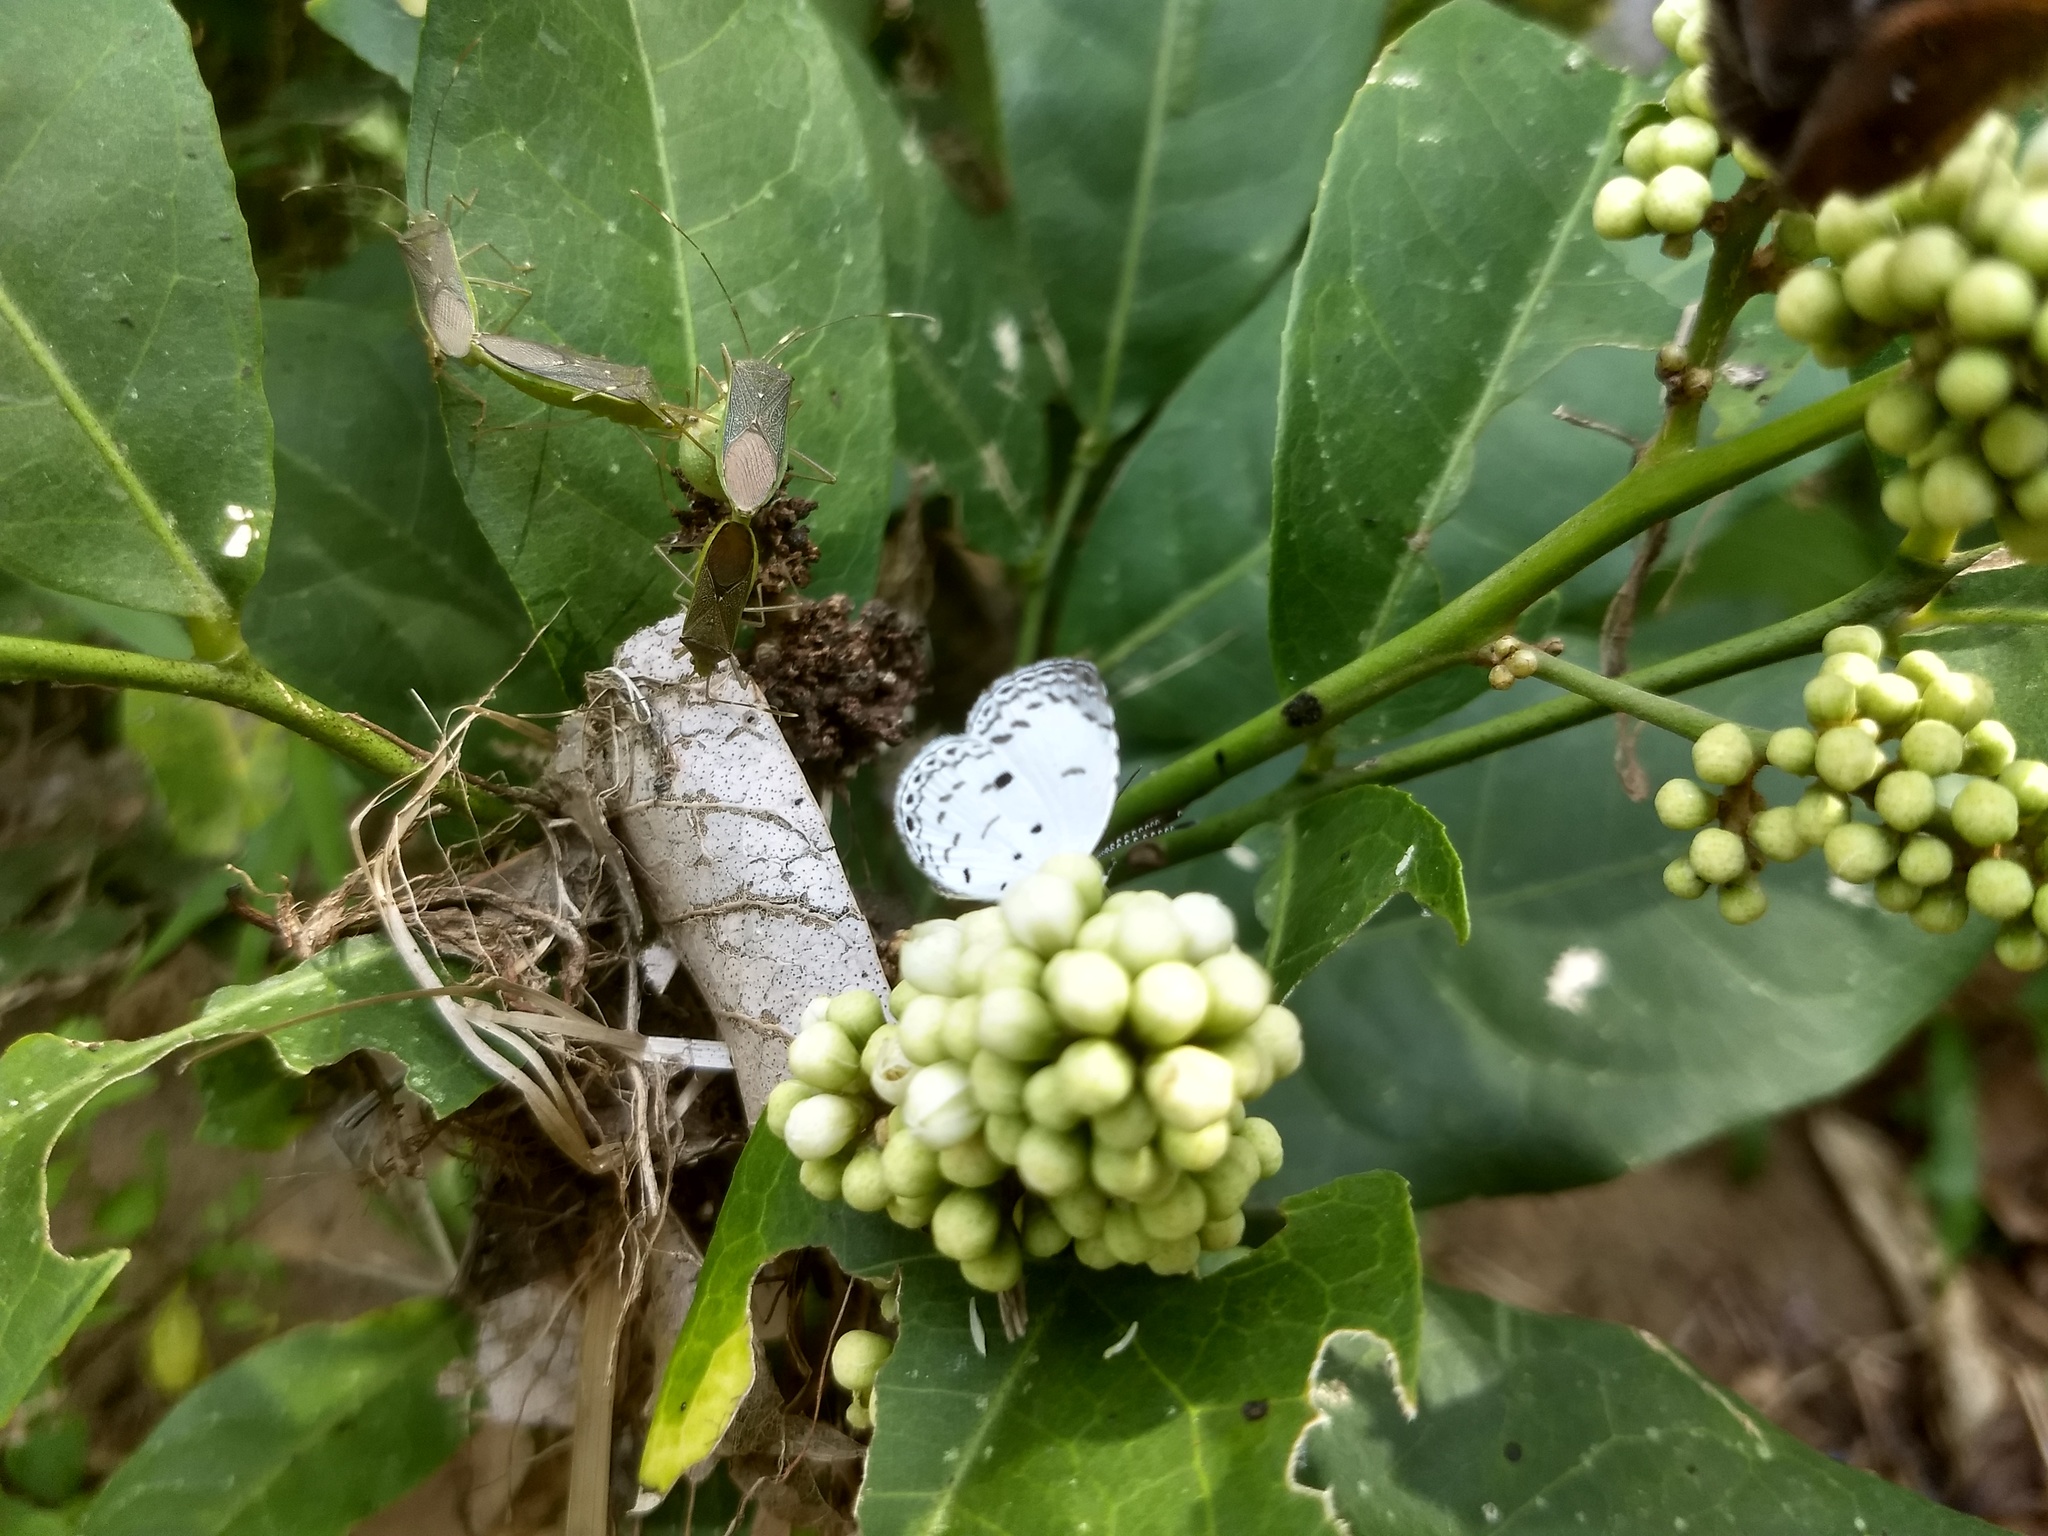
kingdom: Animalia
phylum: Arthropoda
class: Insecta
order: Lepidoptera
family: Lycaenidae
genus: Neopithecops
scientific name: Neopithecops zalmora
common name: Quaker
